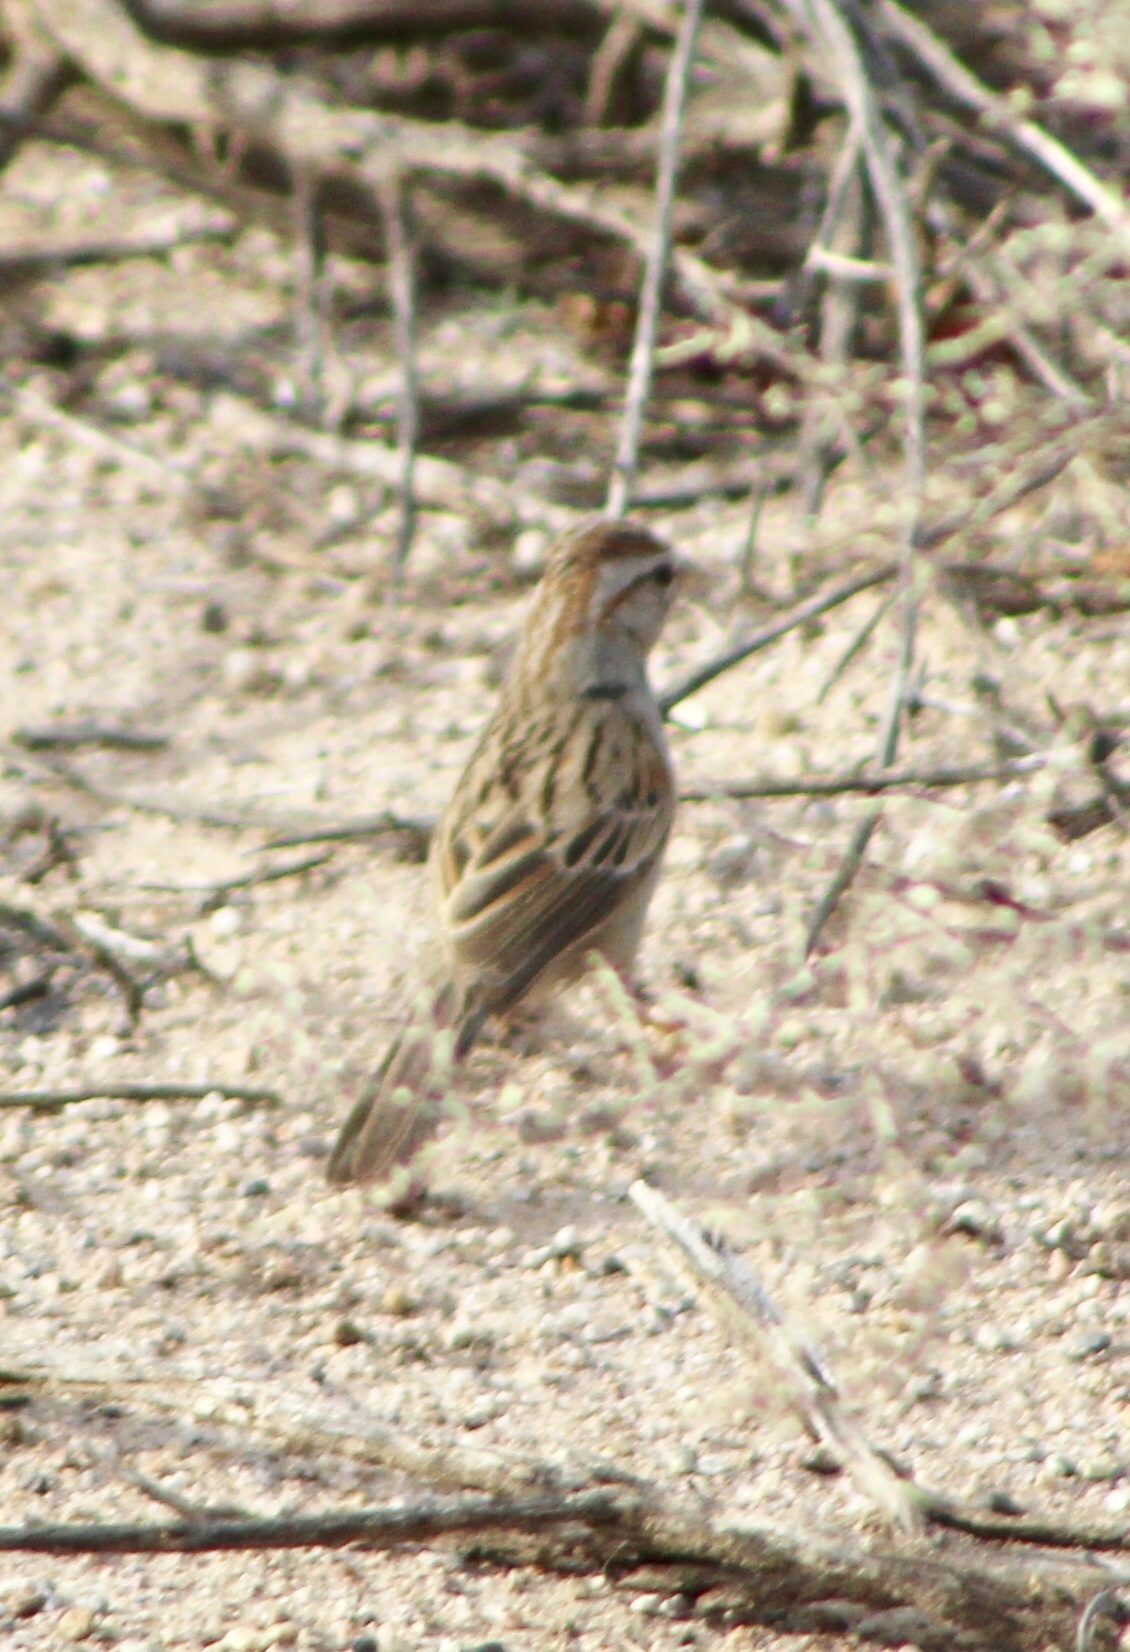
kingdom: Animalia
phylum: Chordata
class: Aves
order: Passeriformes
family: Passerellidae
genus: Peucaea
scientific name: Peucaea carpalis
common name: Rufous-winged sparrow
